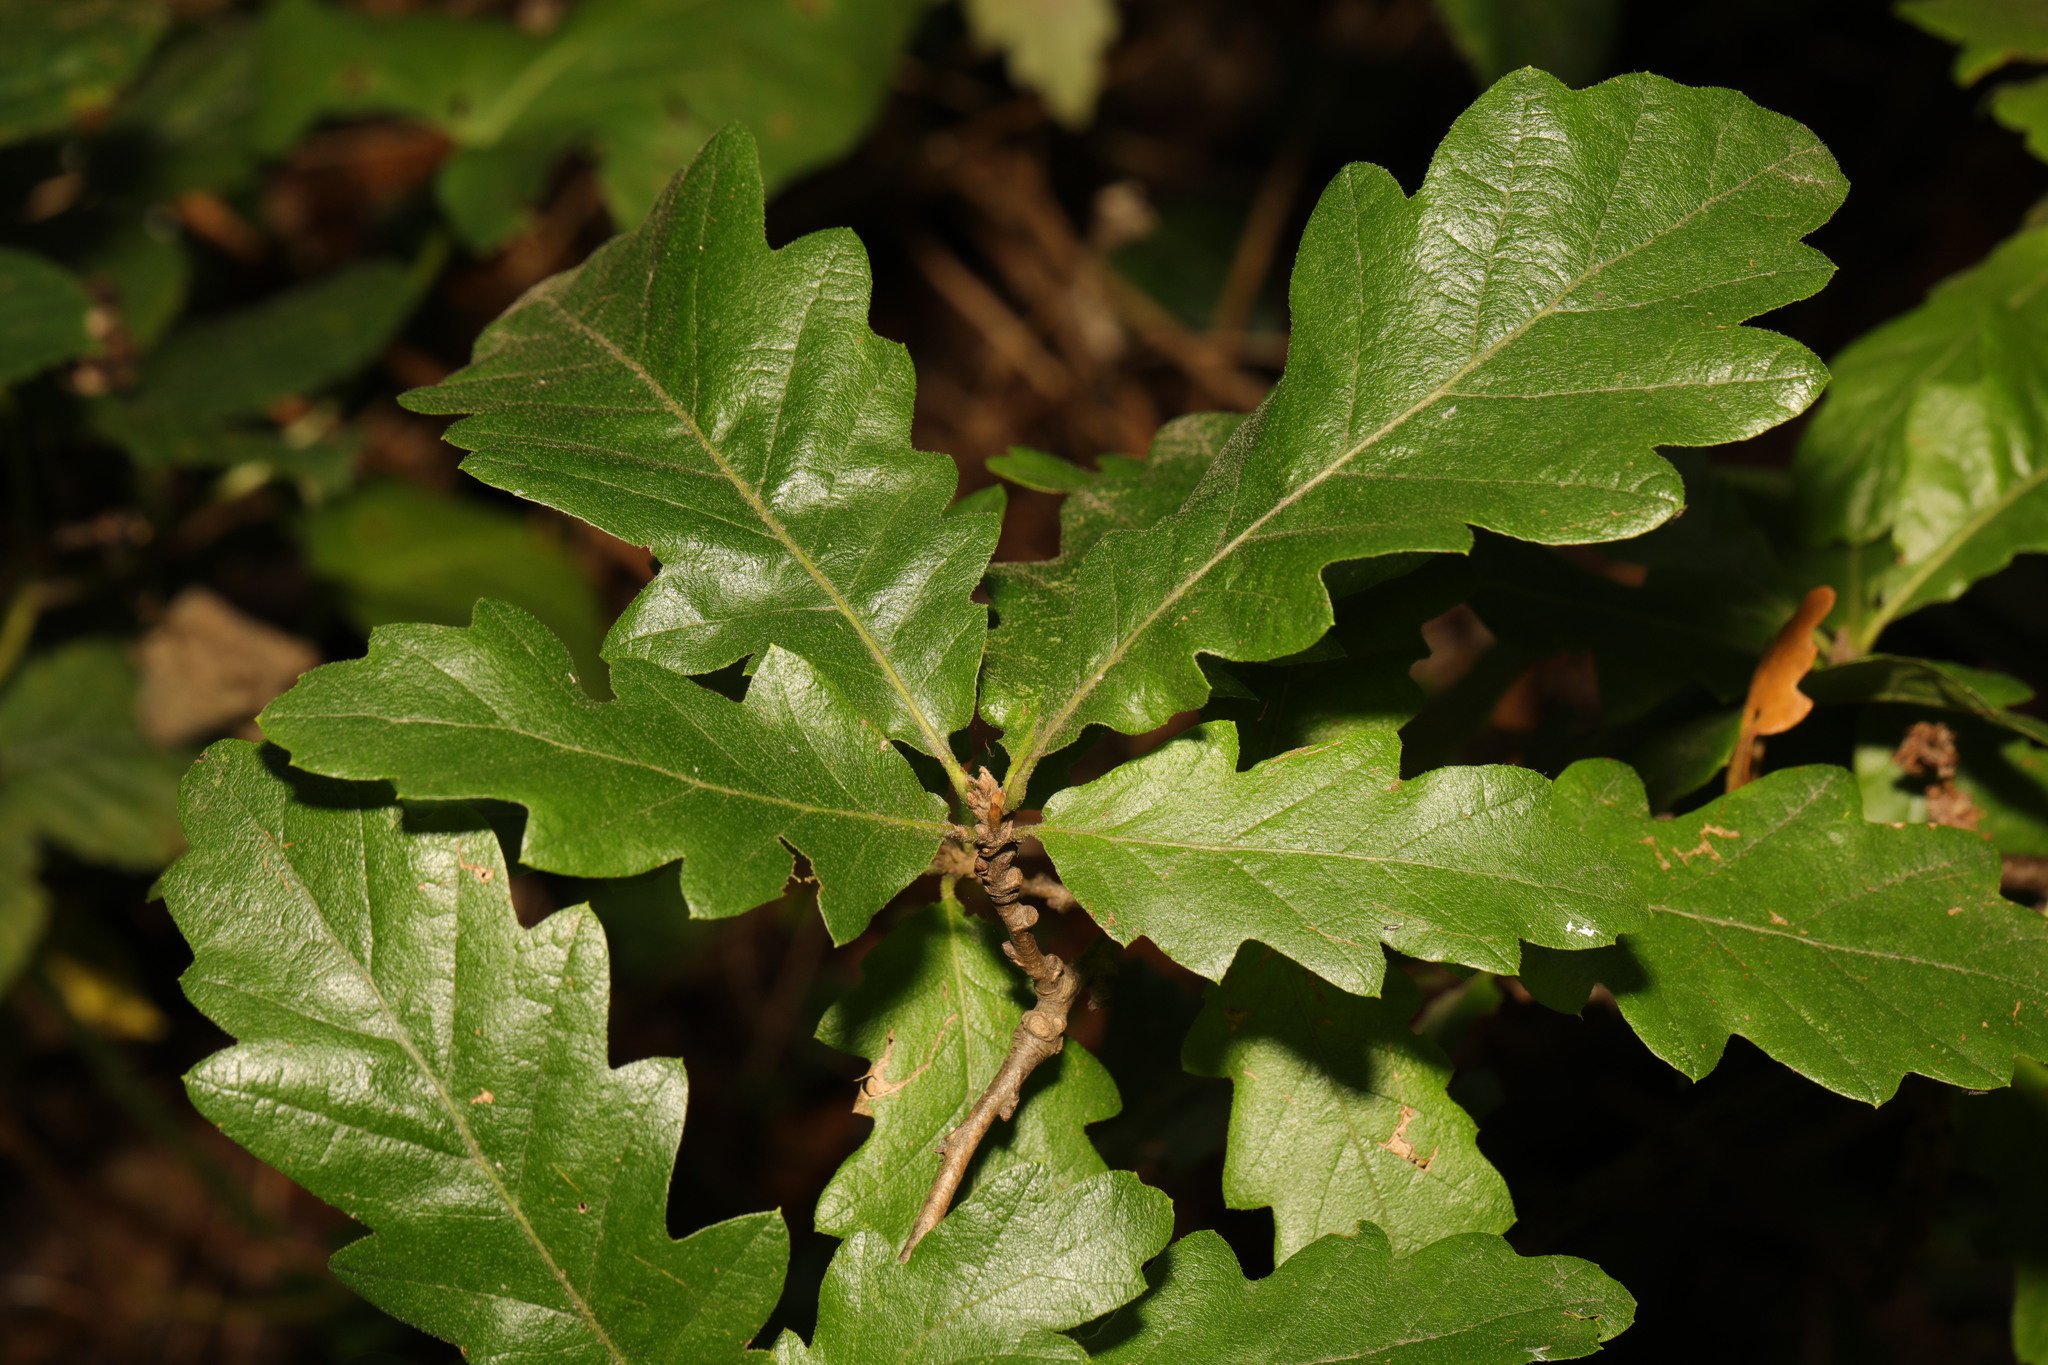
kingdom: Plantae
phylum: Tracheophyta
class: Magnoliopsida
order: Fagales
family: Fagaceae
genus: Quercus
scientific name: Quercus robur
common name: Pedunculate oak
